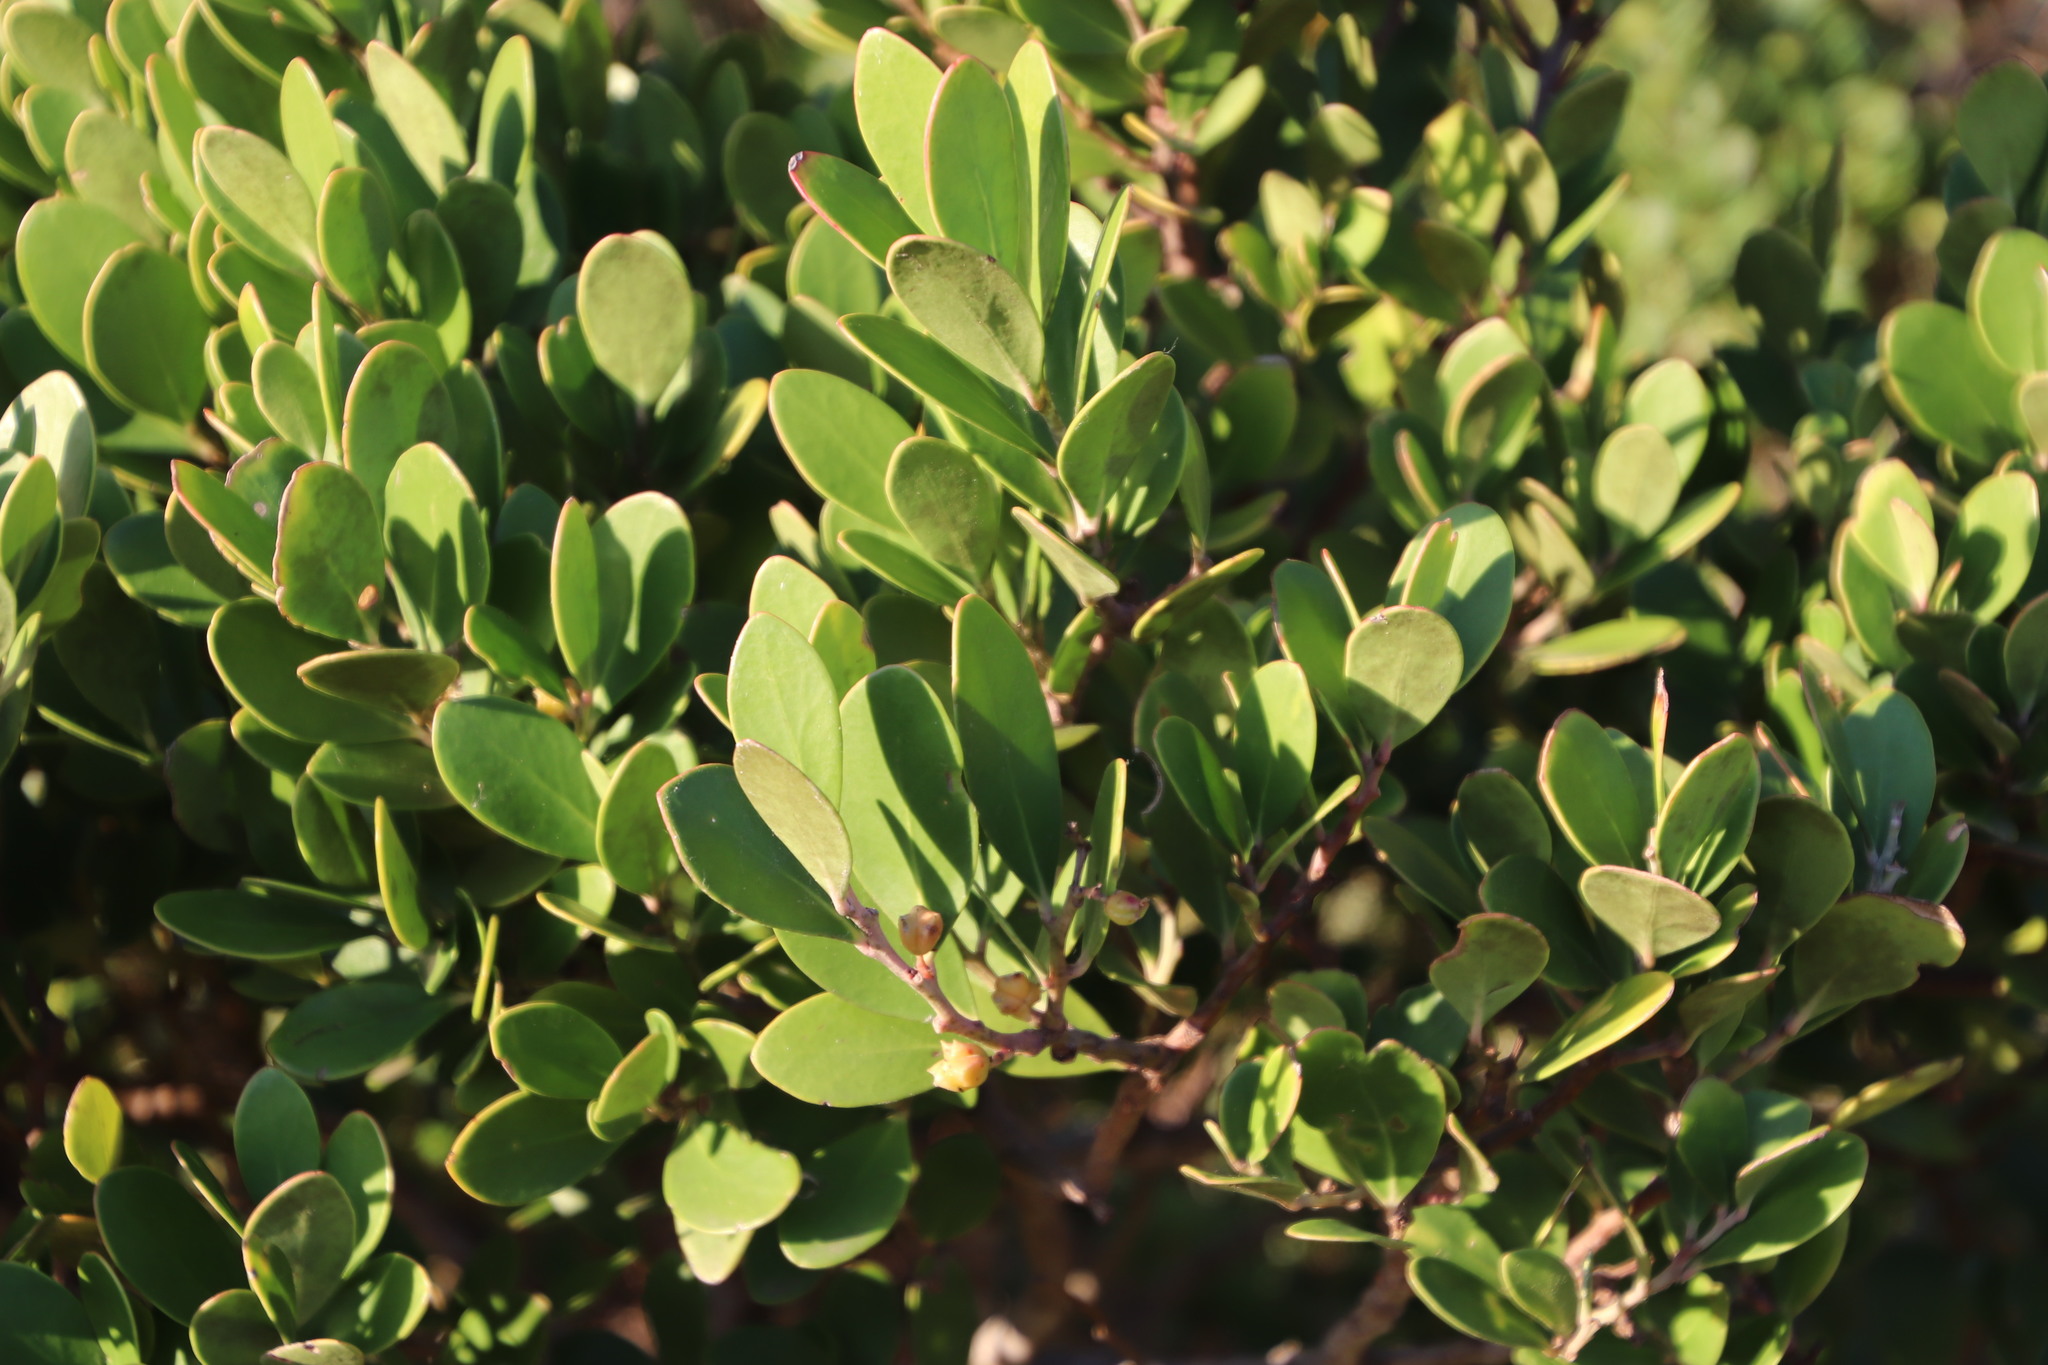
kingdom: Plantae
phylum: Tracheophyta
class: Magnoliopsida
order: Celastrales
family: Celastraceae
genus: Pterocelastrus
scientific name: Pterocelastrus tricuspidatus
